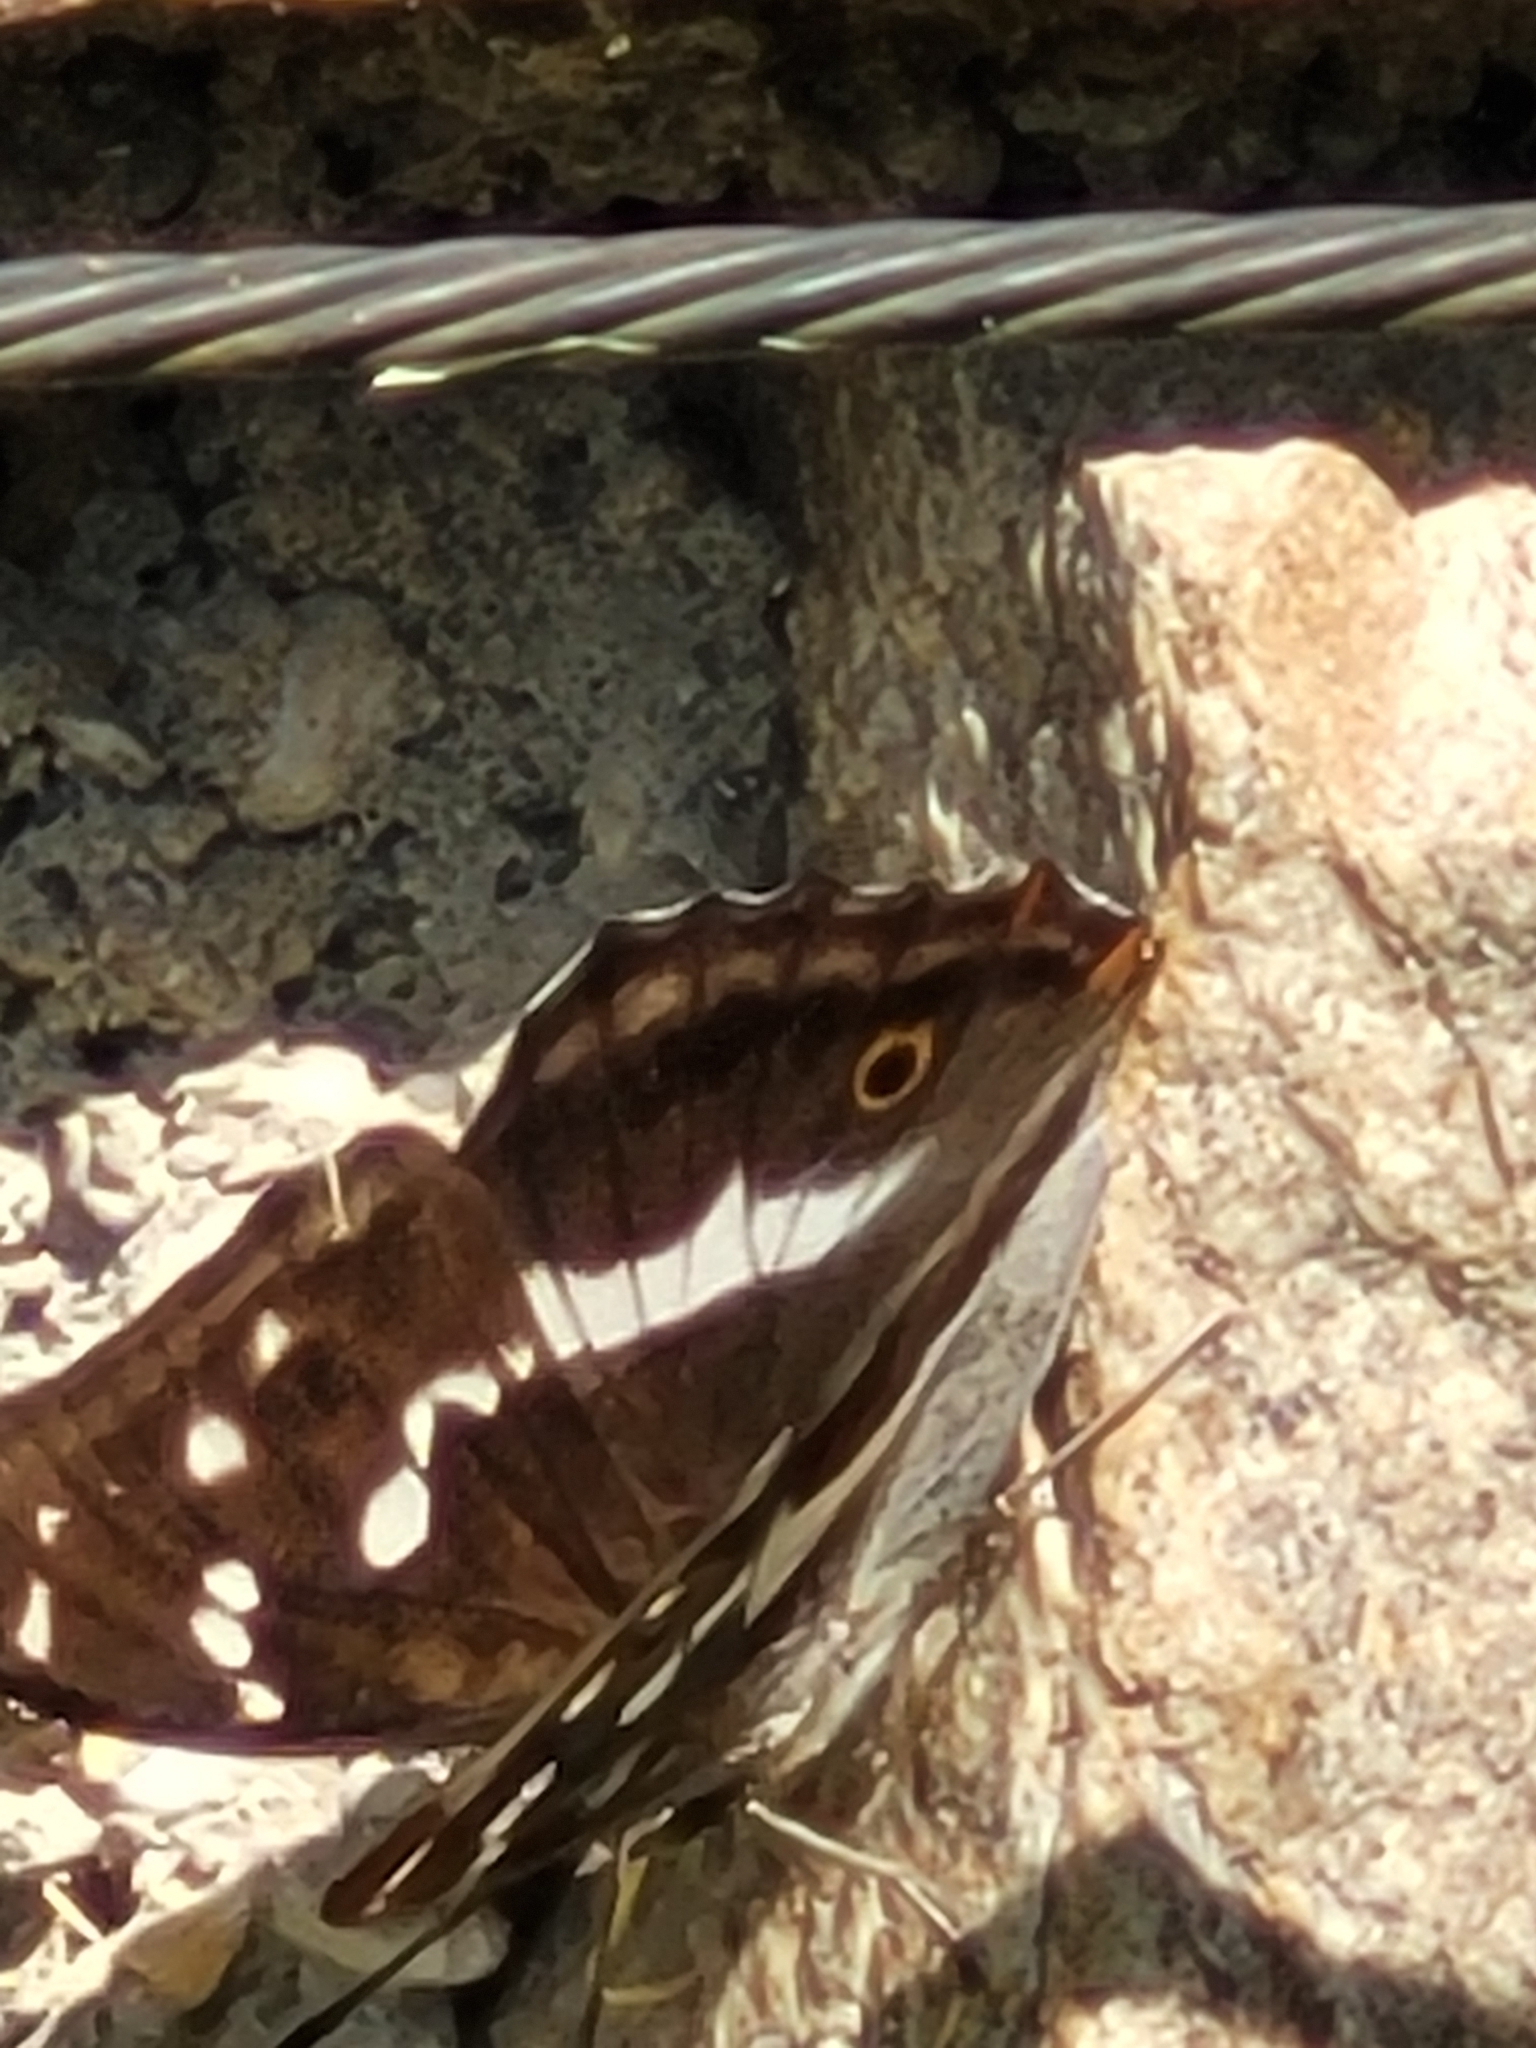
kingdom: Animalia
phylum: Arthropoda
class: Insecta
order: Lepidoptera
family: Nymphalidae
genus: Apatura
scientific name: Apatura iris
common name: Purple emperor
